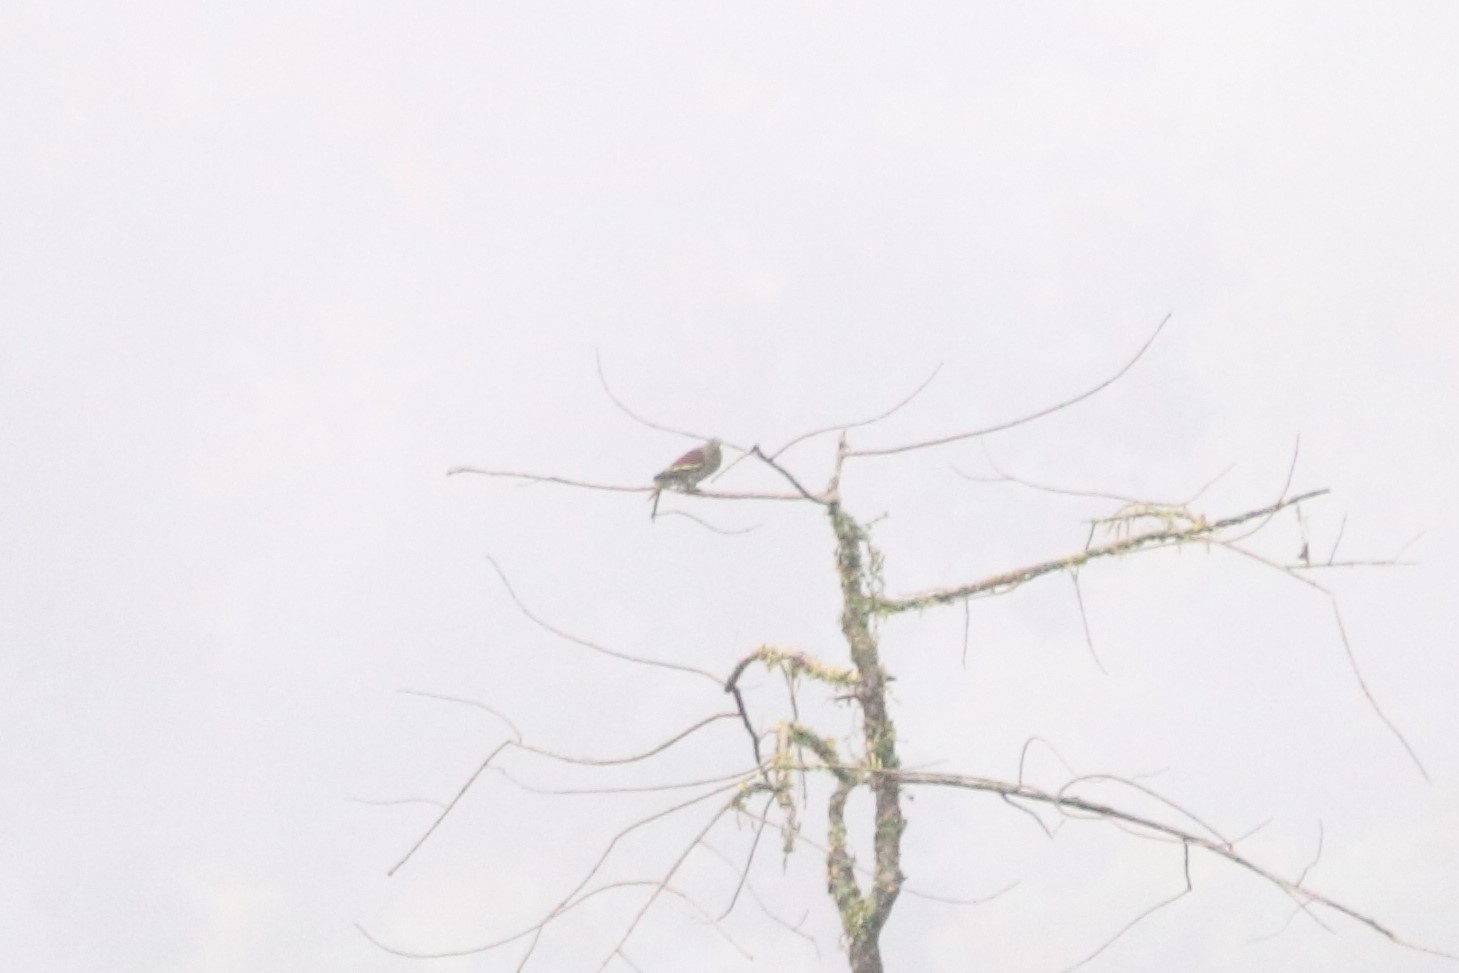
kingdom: Animalia
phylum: Chordata
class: Aves
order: Columbiformes
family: Columbidae
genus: Treron
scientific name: Treron curvirostra
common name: Thick-billed green pigeon
